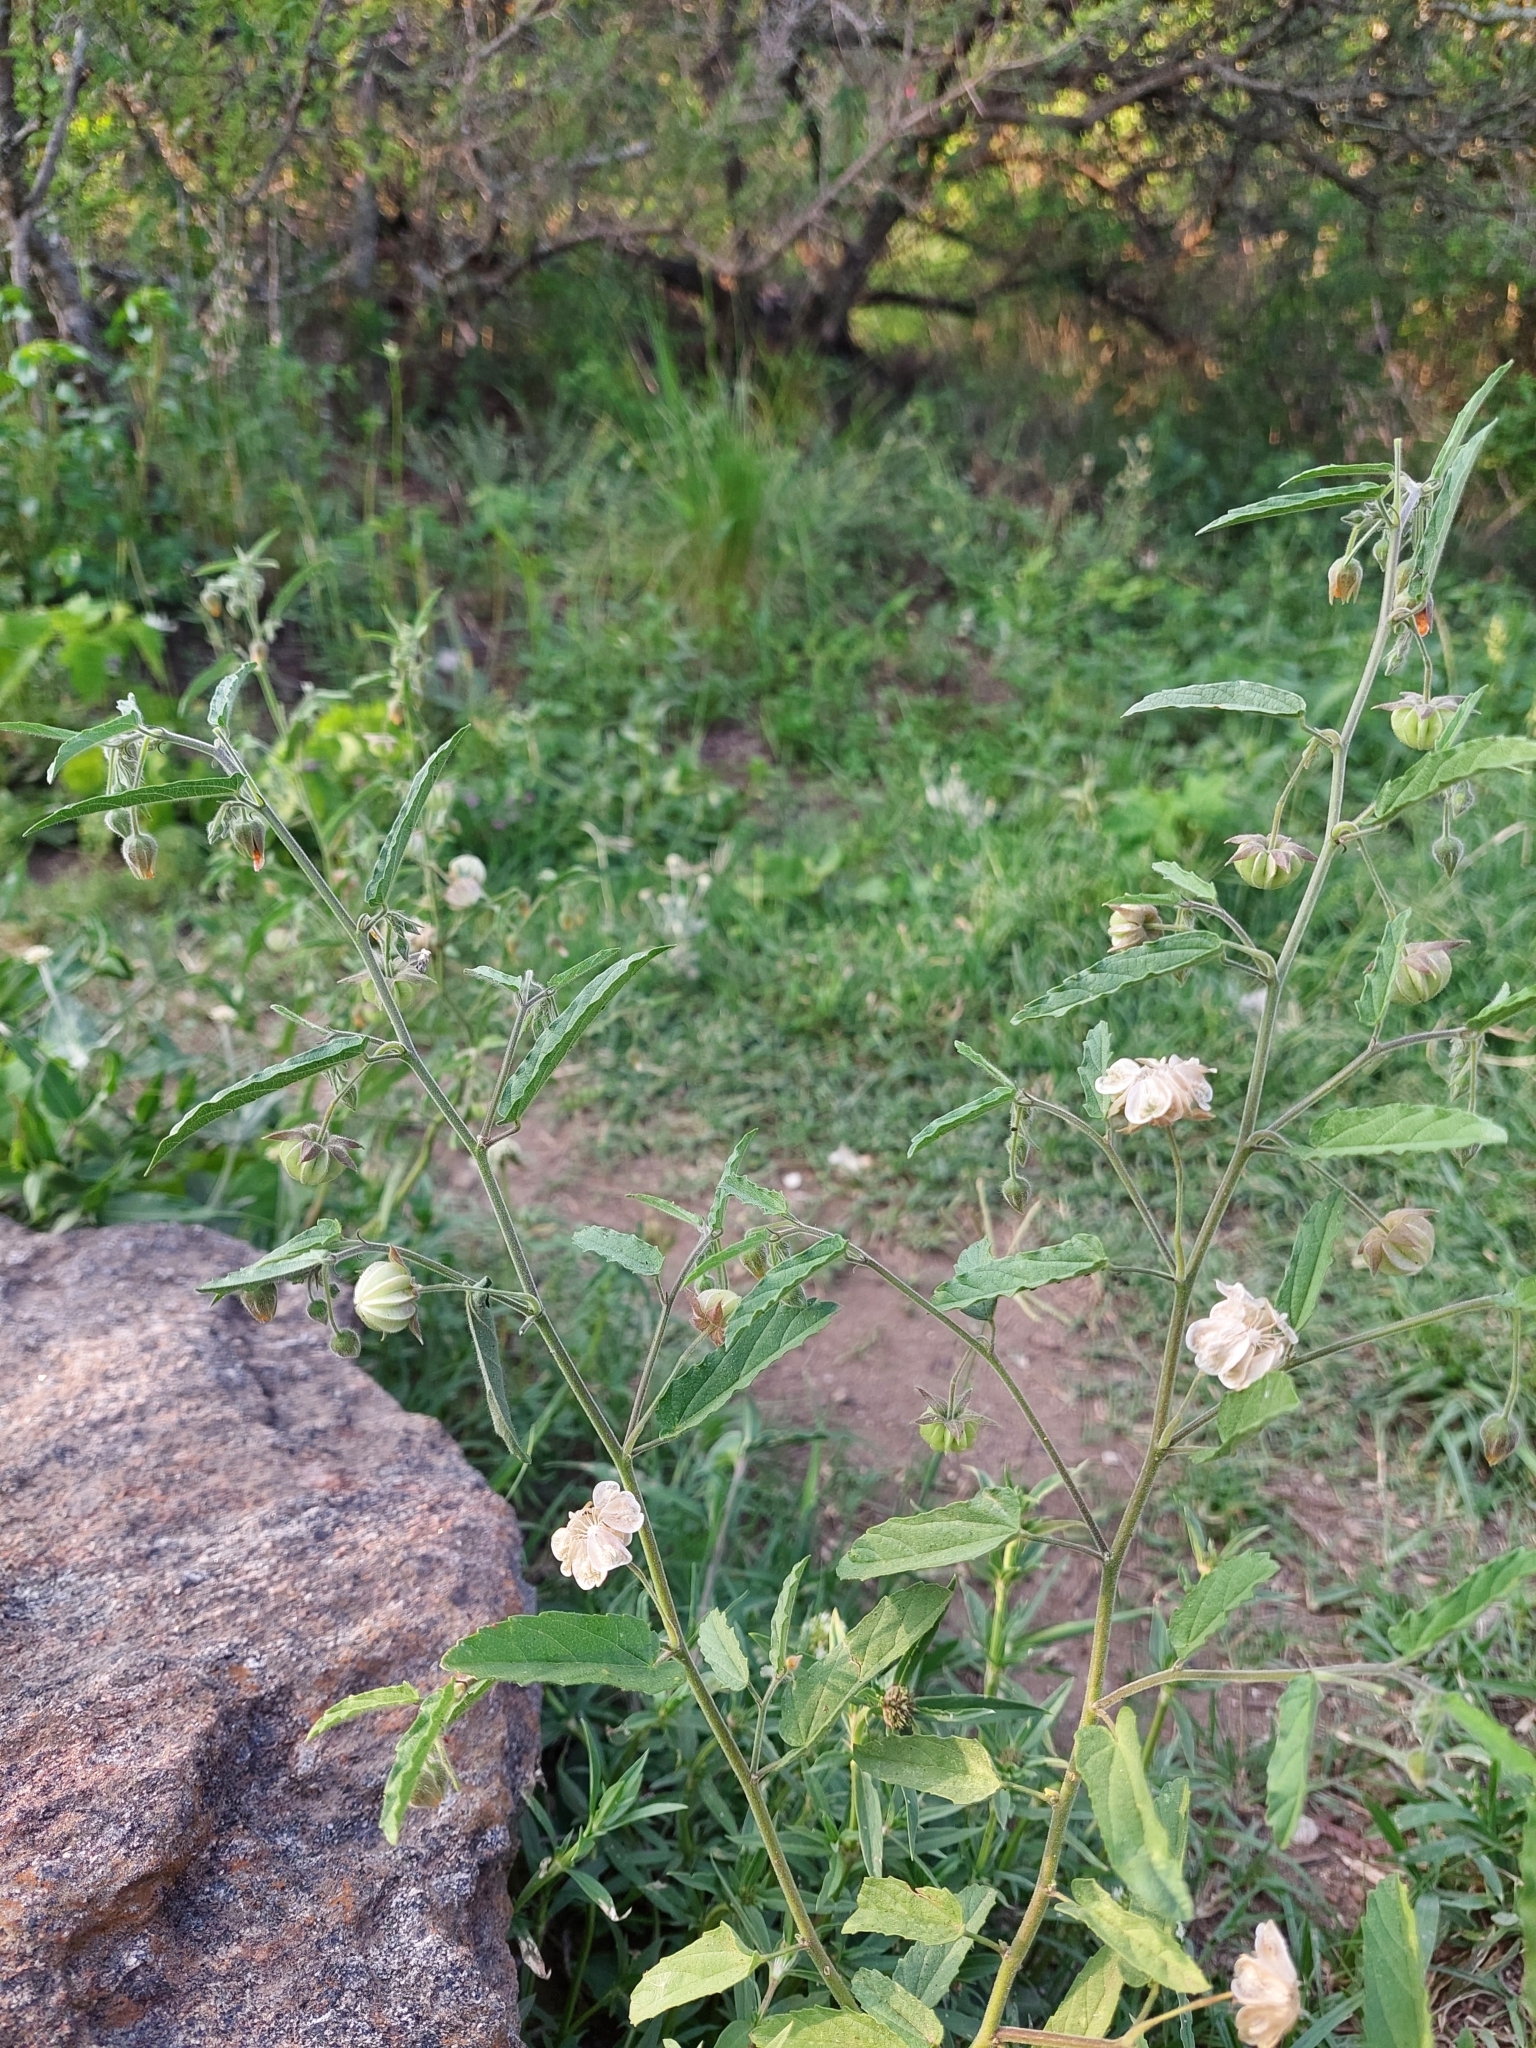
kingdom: Plantae
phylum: Tracheophyta
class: Magnoliopsida
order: Malvales
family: Malvaceae
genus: Gaya
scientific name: Gaya parviflora
